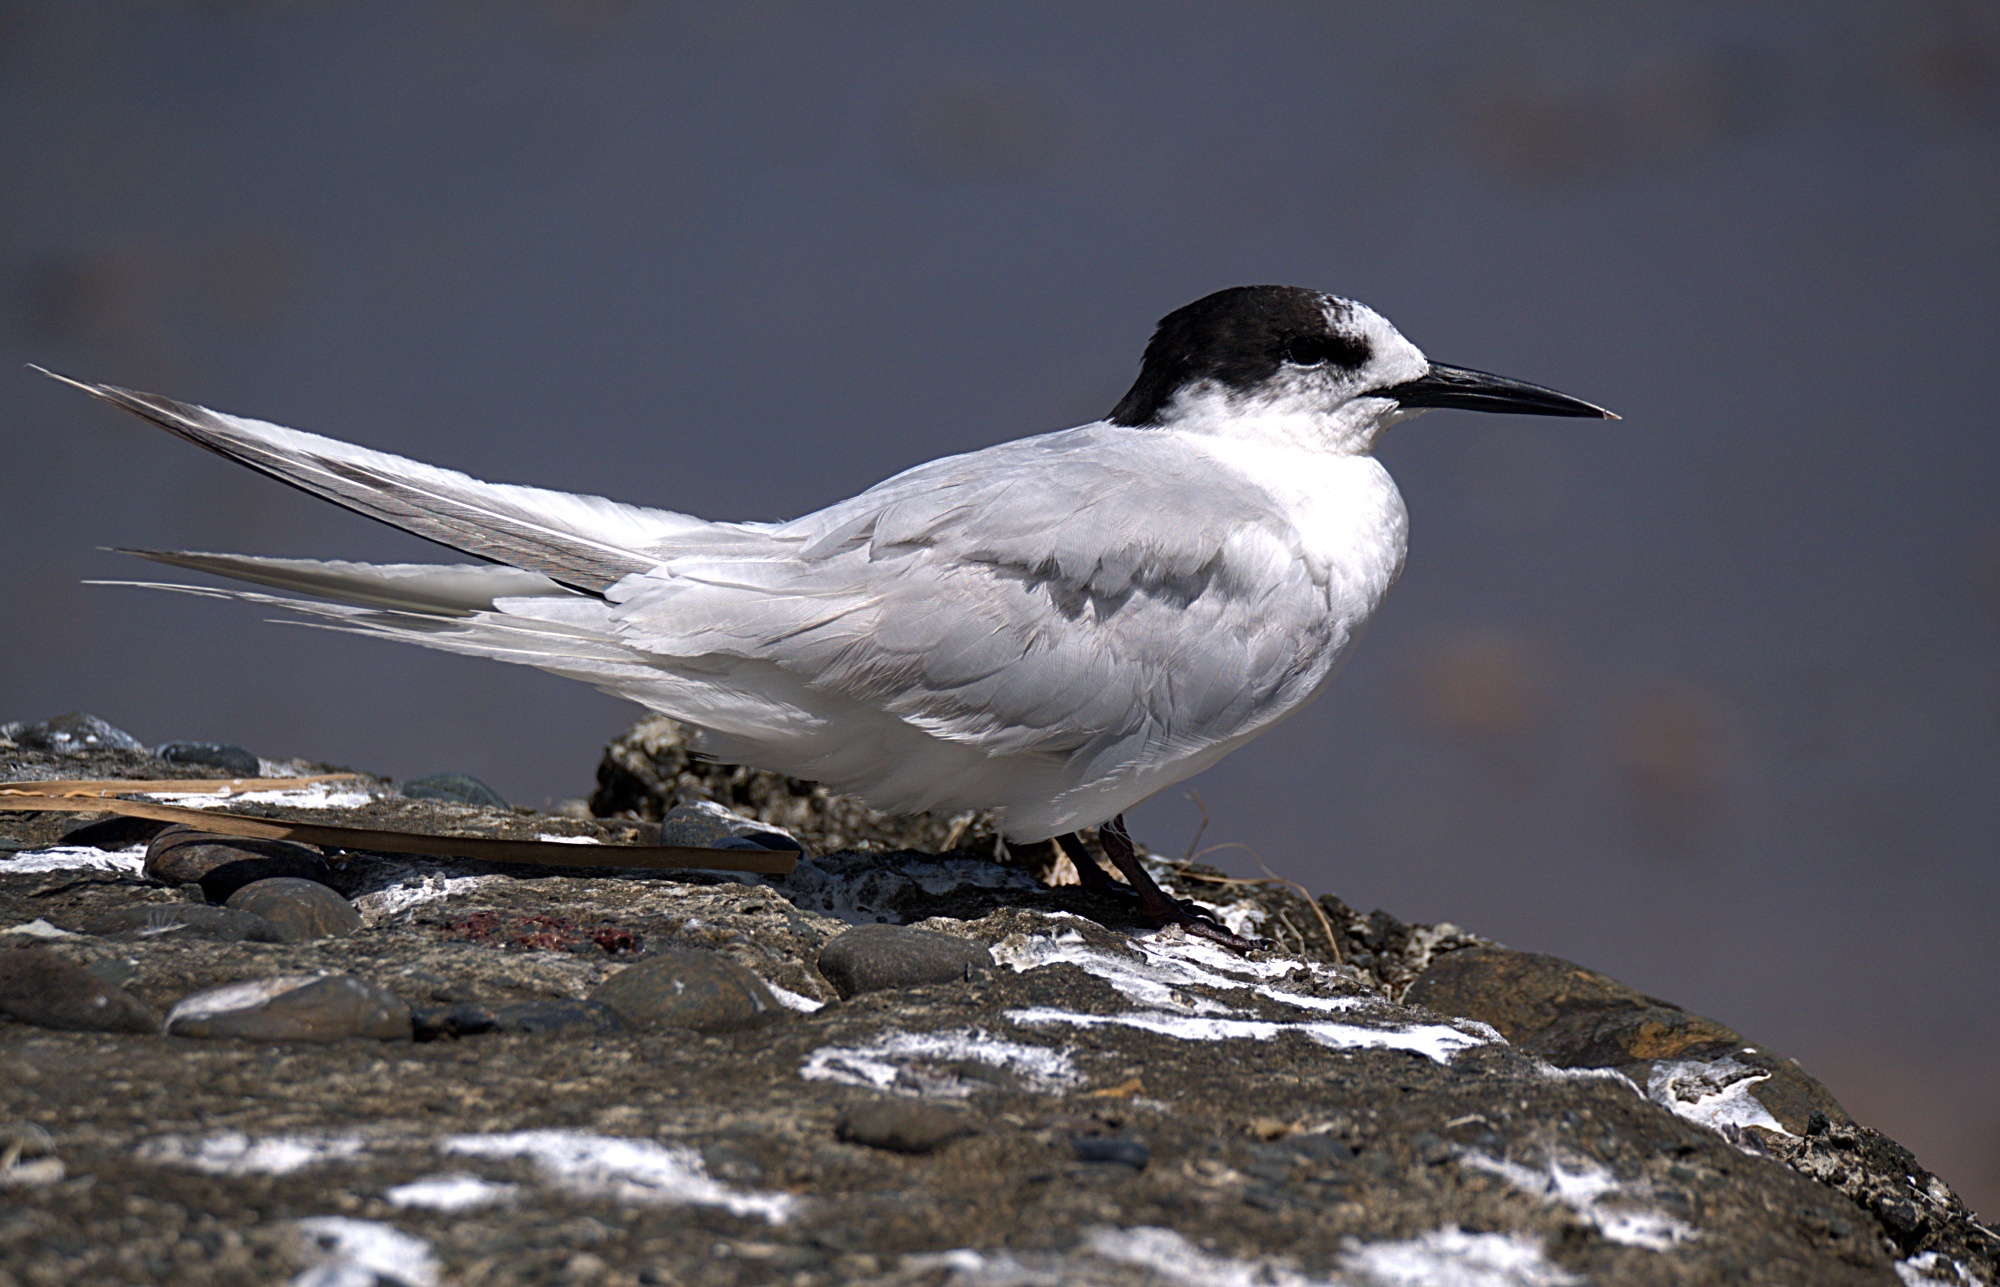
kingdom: Animalia
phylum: Chordata
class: Aves
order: Charadriiformes
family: Laridae
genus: Sterna
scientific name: Sterna striata
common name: White-fronted tern
